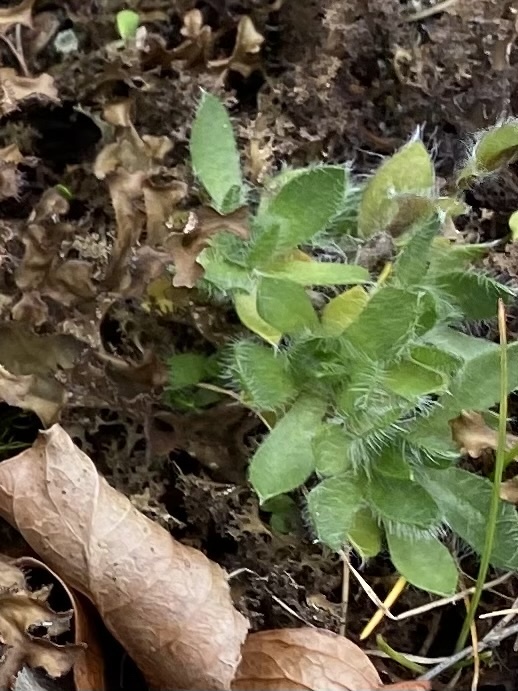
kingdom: Plantae
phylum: Tracheophyta
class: Magnoliopsida
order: Boraginales
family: Boraginaceae
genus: Eritrichium
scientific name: Eritrichium villosum
